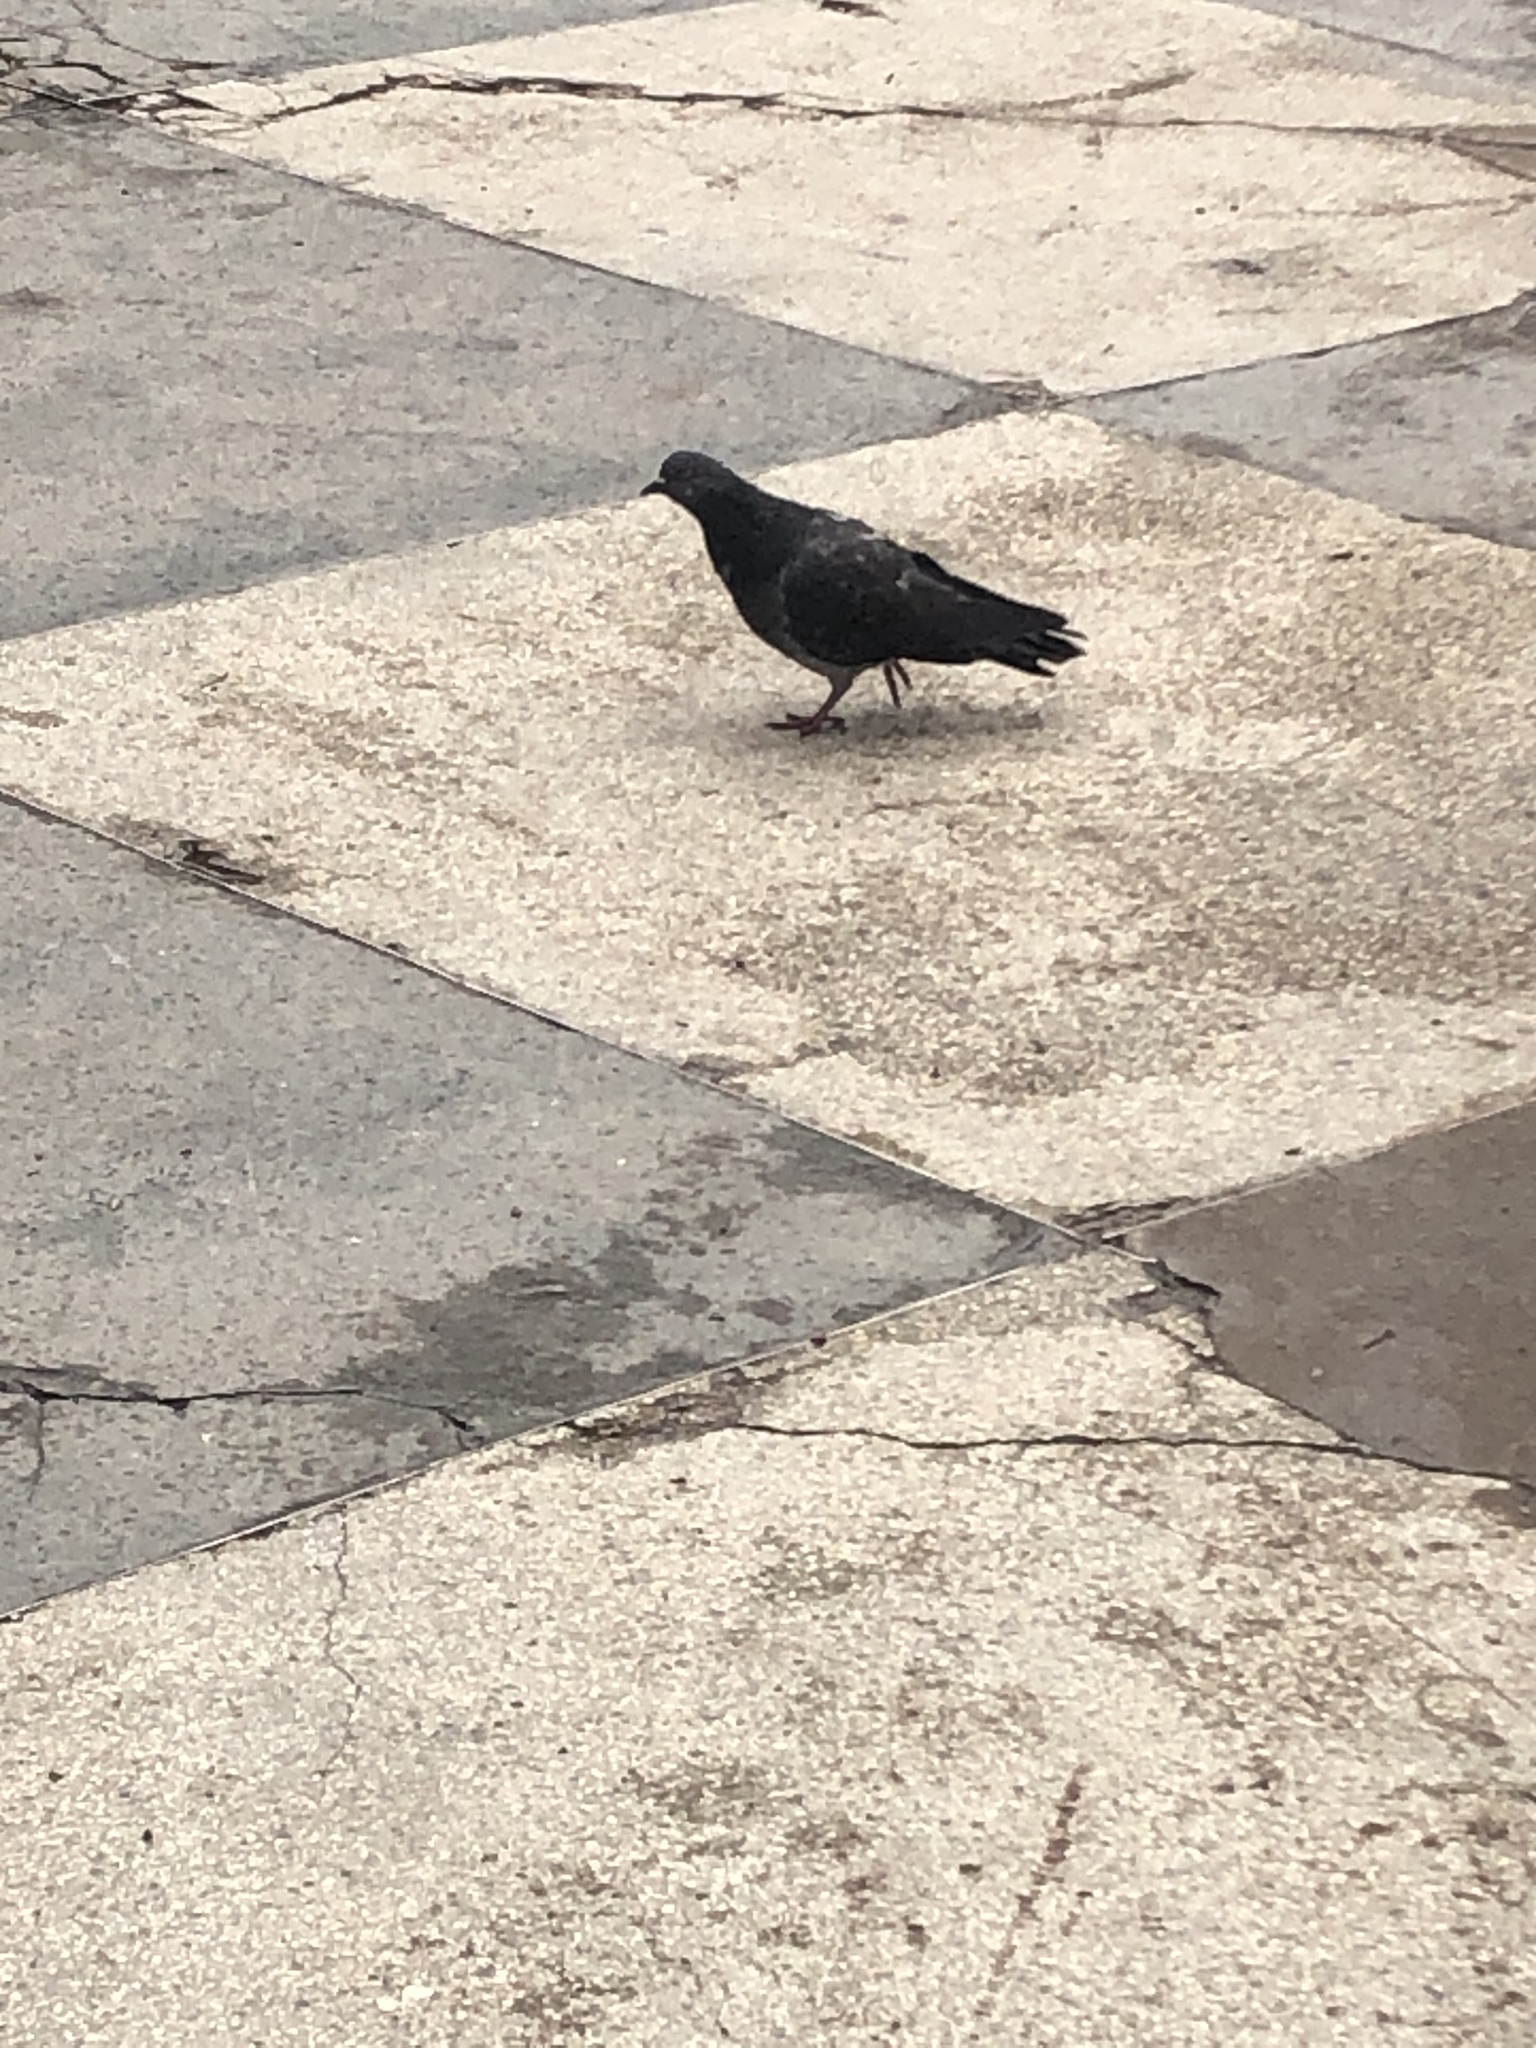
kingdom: Animalia
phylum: Chordata
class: Aves
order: Columbiformes
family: Columbidae
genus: Columba
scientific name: Columba livia
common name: Rock pigeon
